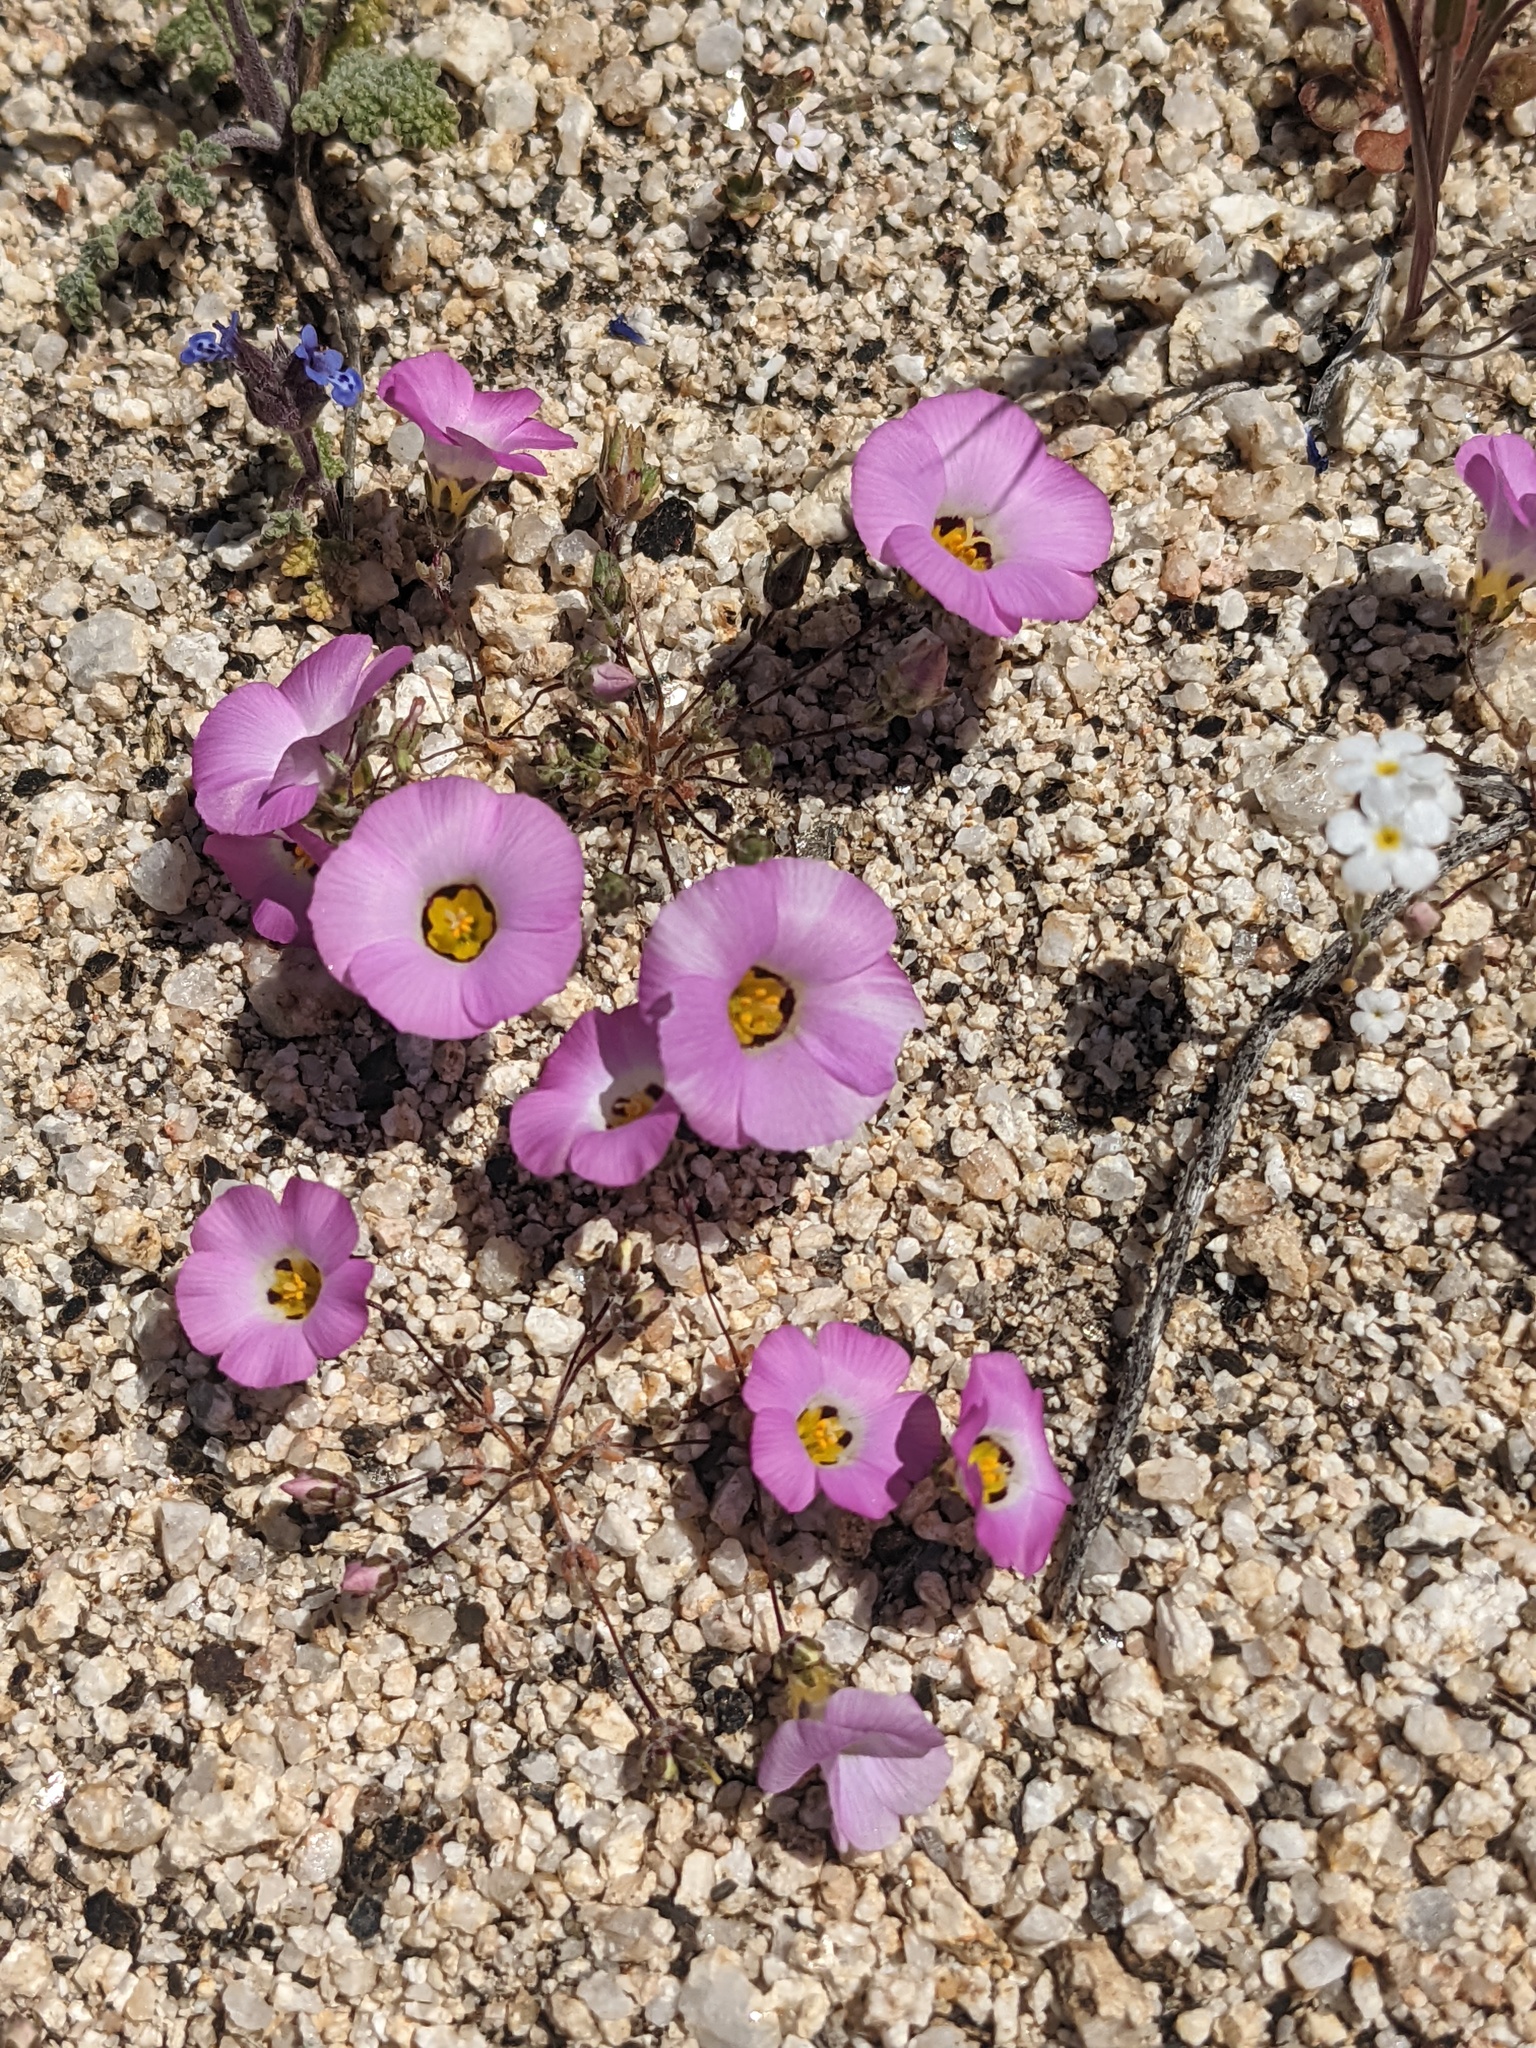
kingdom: Plantae
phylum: Tracheophyta
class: Magnoliopsida
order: Ericales
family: Polemoniaceae
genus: Linanthus
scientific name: Linanthus bellus
